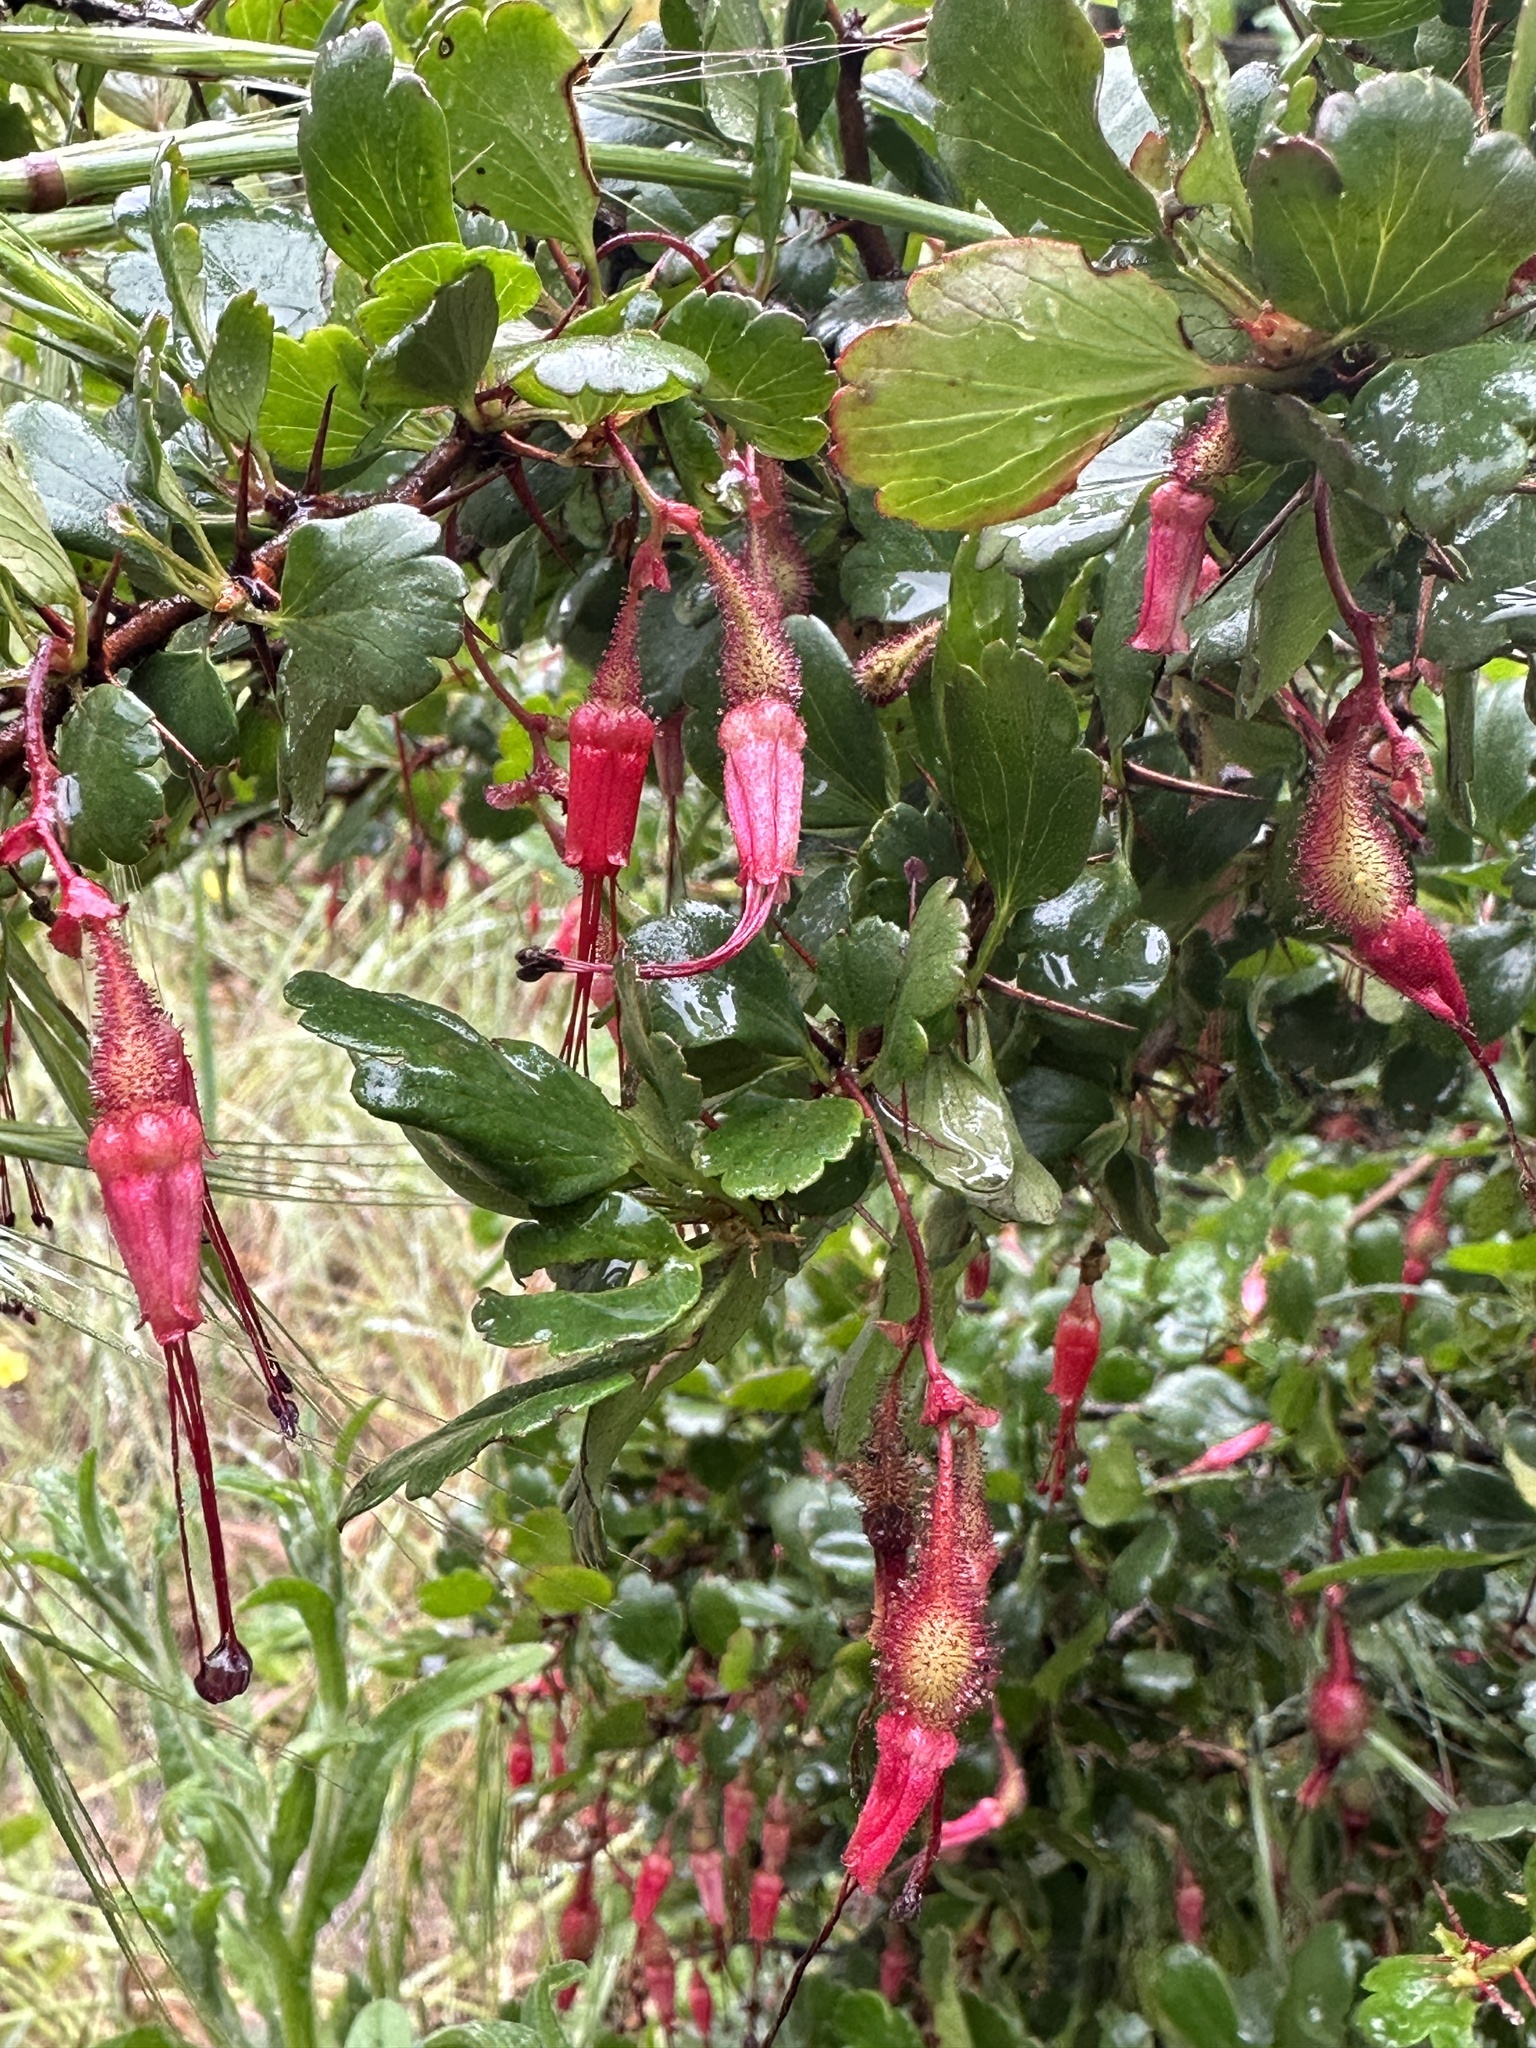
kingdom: Plantae
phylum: Tracheophyta
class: Magnoliopsida
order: Saxifragales
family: Grossulariaceae
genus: Ribes
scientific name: Ribes speciosum
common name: Fuchsia-flower gooseberry
